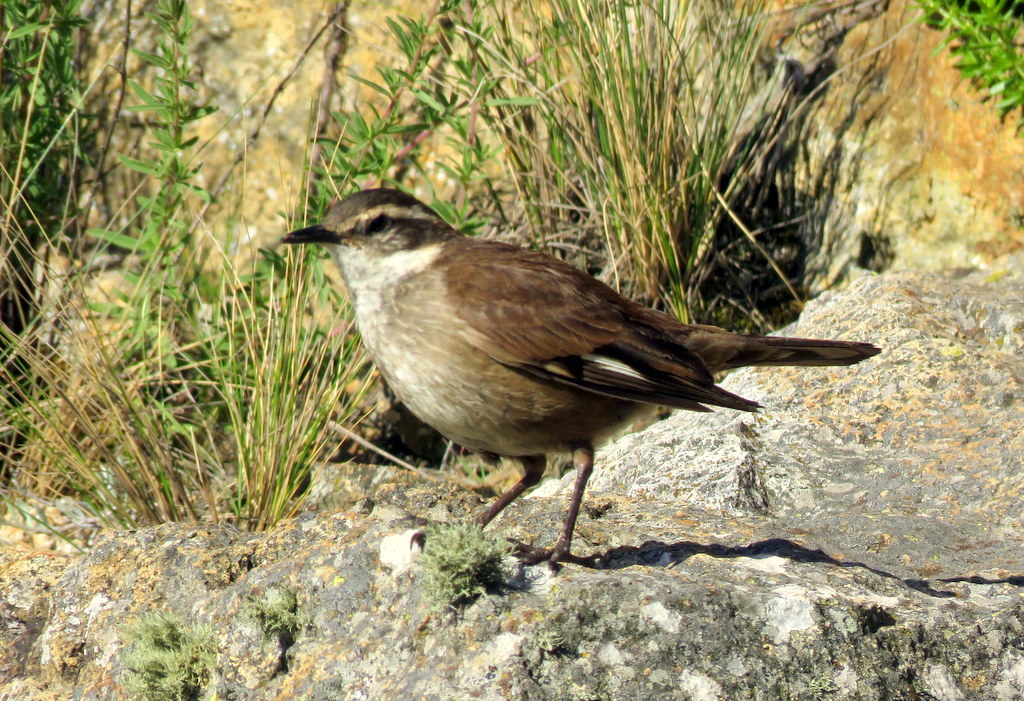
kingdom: Animalia
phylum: Chordata
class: Aves
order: Passeriformes
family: Furnariidae
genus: Cinclodes
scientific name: Cinclodes olrogi
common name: Olrog's cinclodes
